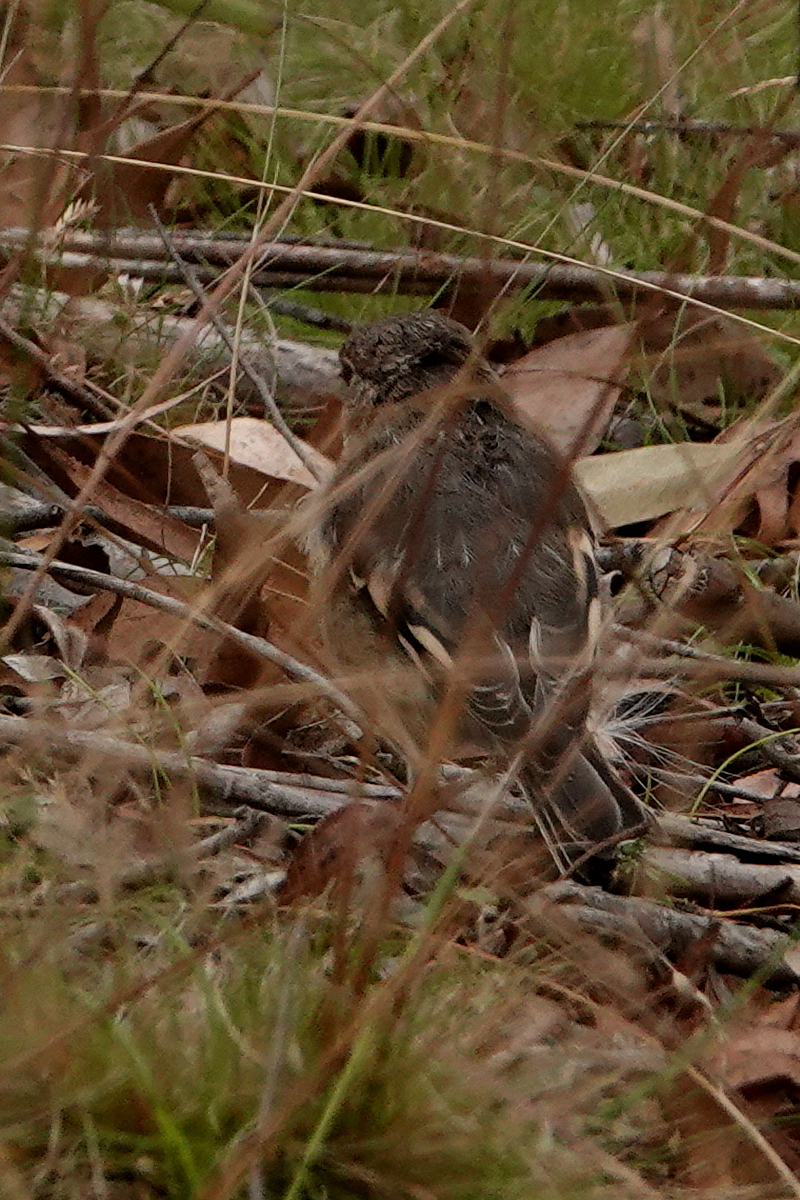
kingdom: Animalia
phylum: Chordata
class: Aves
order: Passeriformes
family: Petroicidae
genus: Petroica
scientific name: Petroica phoenicea
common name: Flame robin
